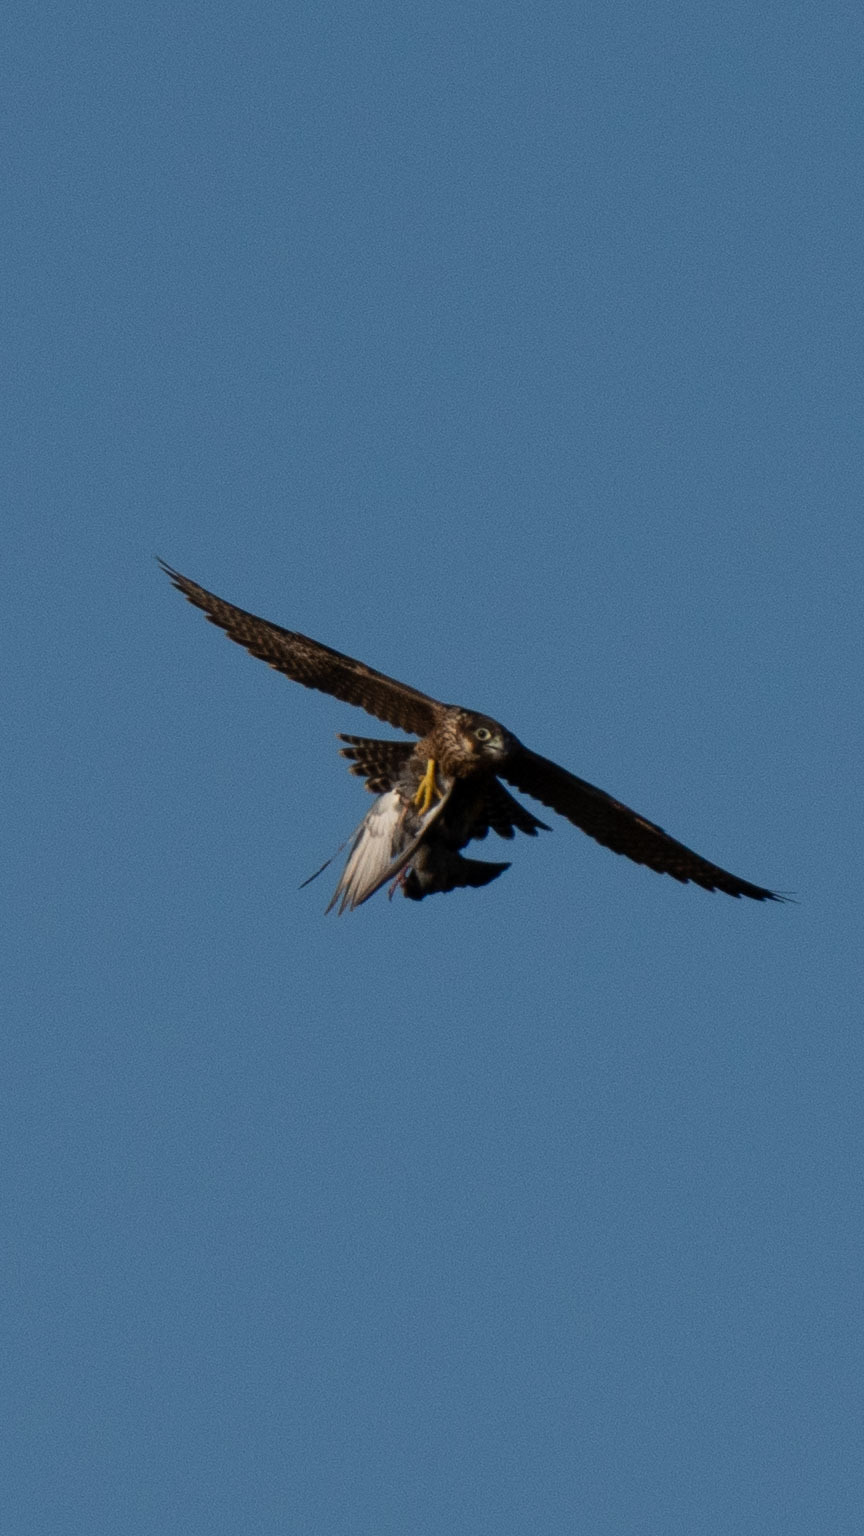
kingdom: Animalia
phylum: Chordata
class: Aves
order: Falconiformes
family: Falconidae
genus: Falco
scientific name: Falco peregrinus
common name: Peregrine falcon
